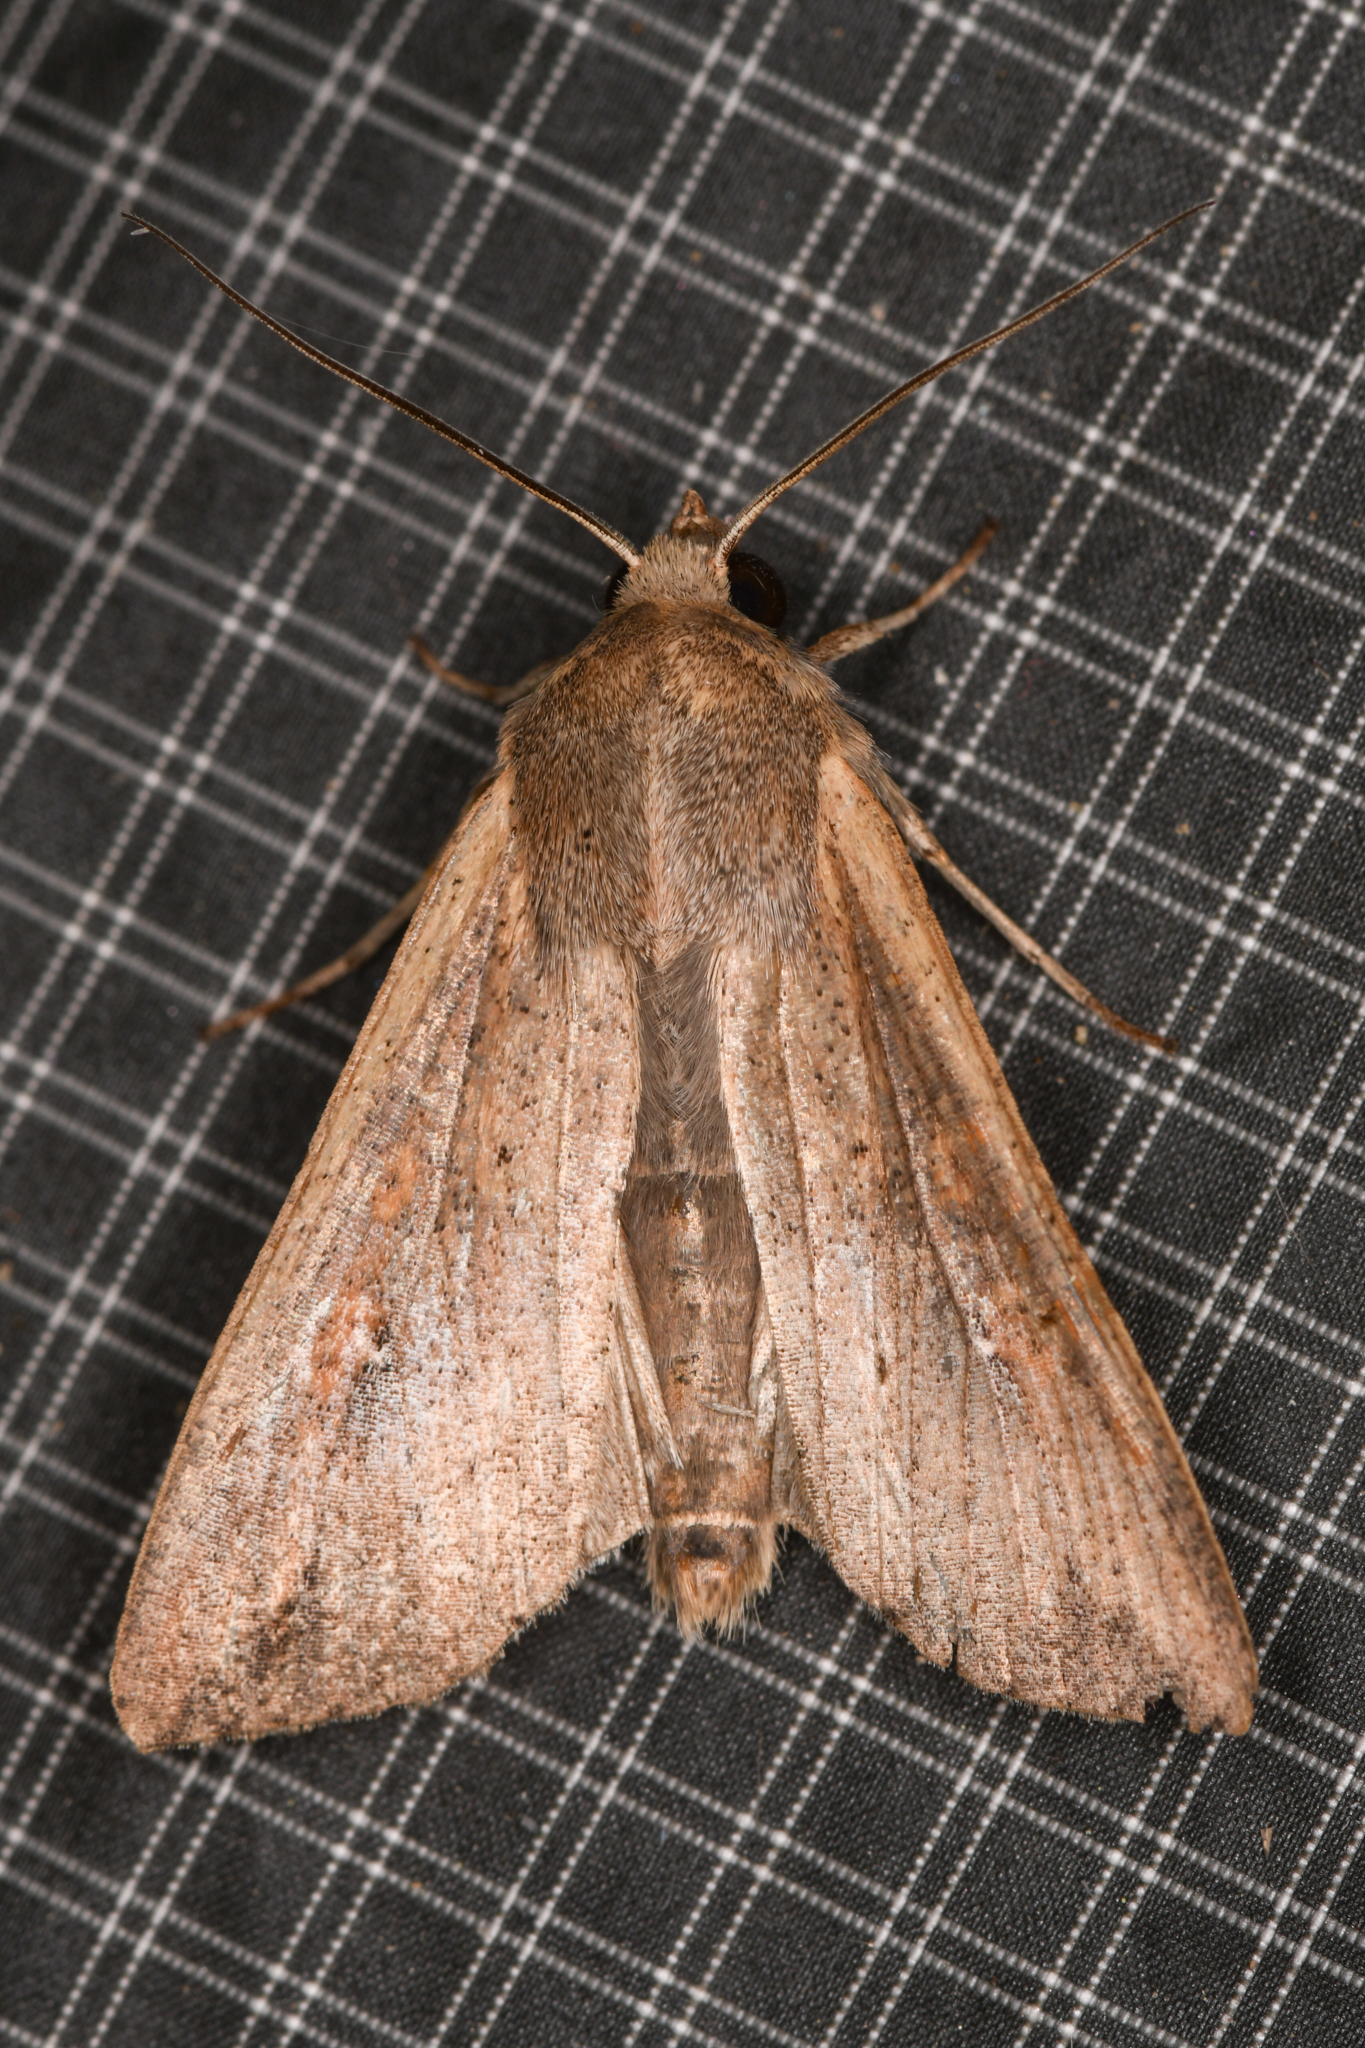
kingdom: Animalia
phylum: Arthropoda
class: Insecta
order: Lepidoptera
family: Noctuidae
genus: Mythimna
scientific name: Mythimna unipuncta
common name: White-speck
